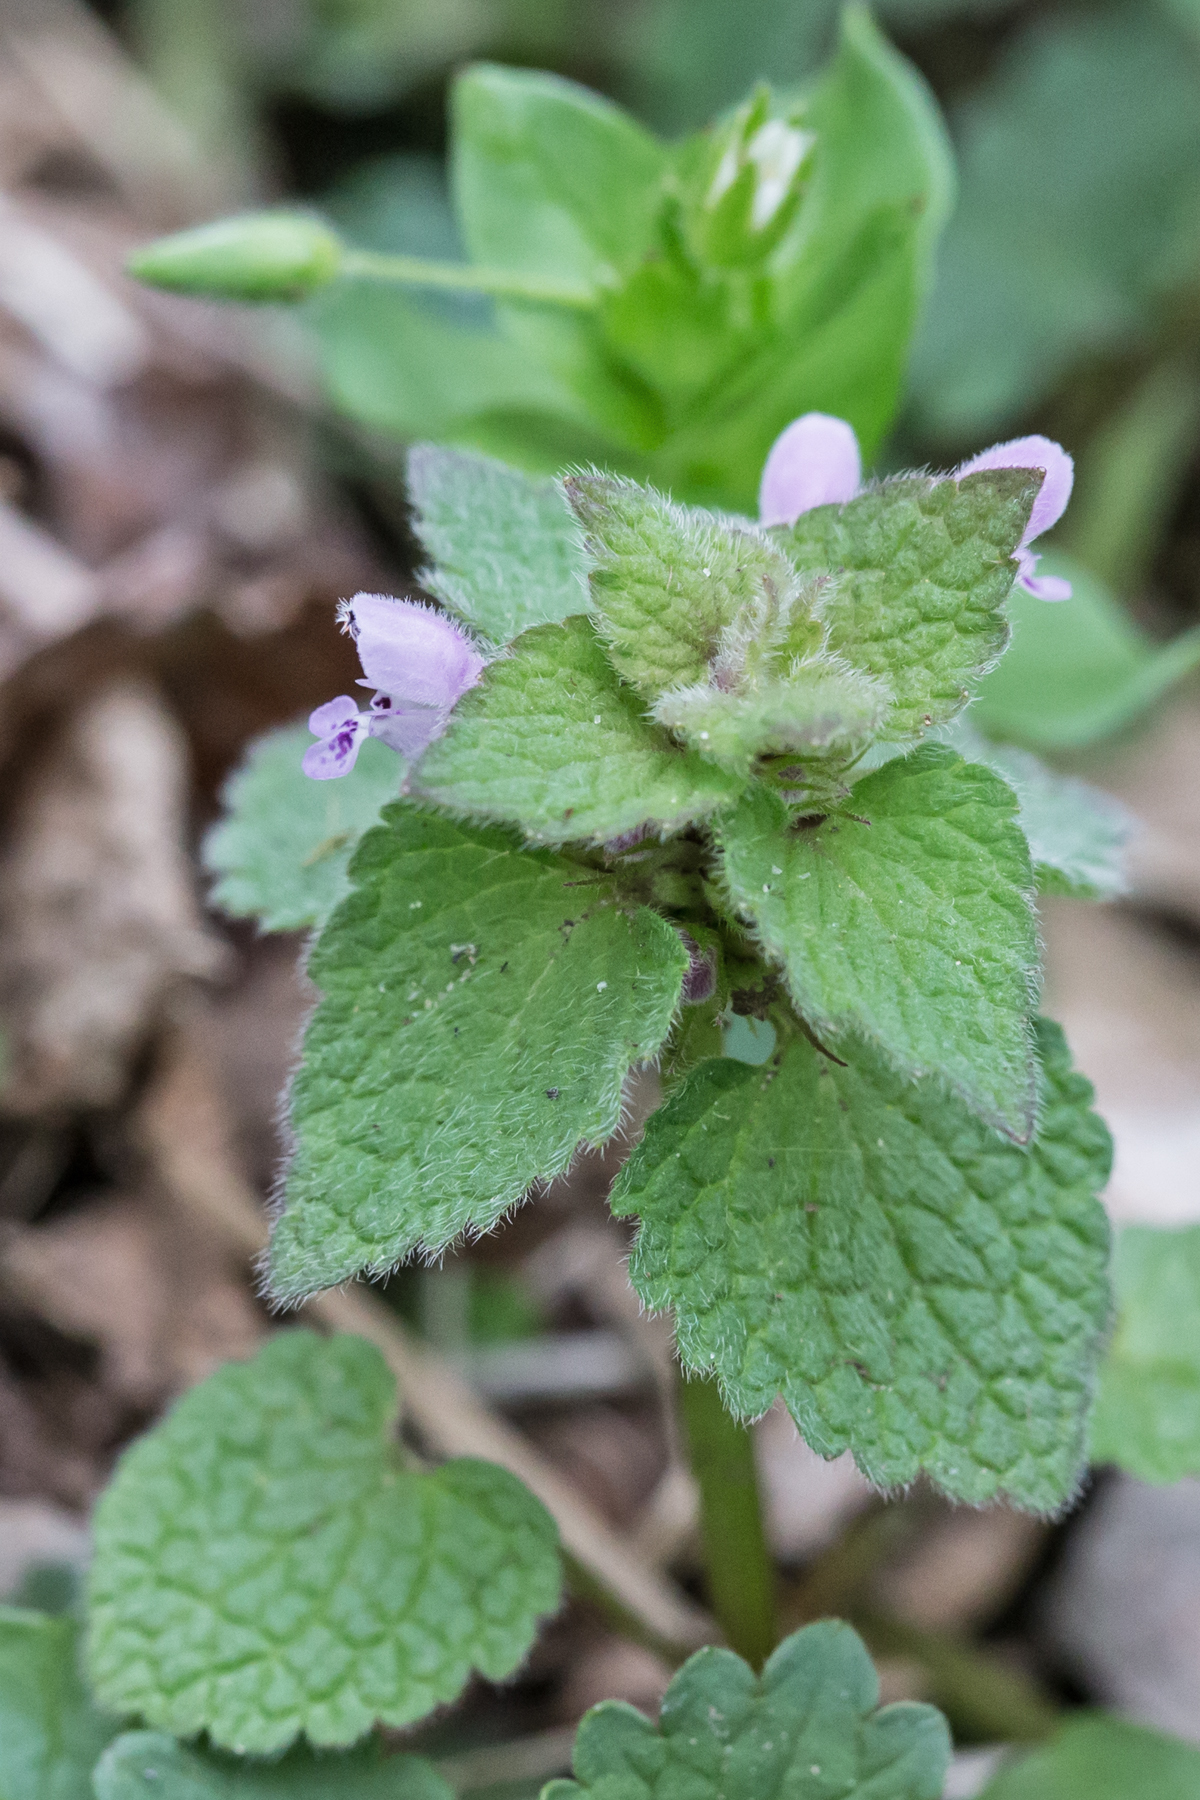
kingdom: Plantae
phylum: Tracheophyta
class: Magnoliopsida
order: Lamiales
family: Lamiaceae
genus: Lamium
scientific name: Lamium purpureum
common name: Red dead-nettle
